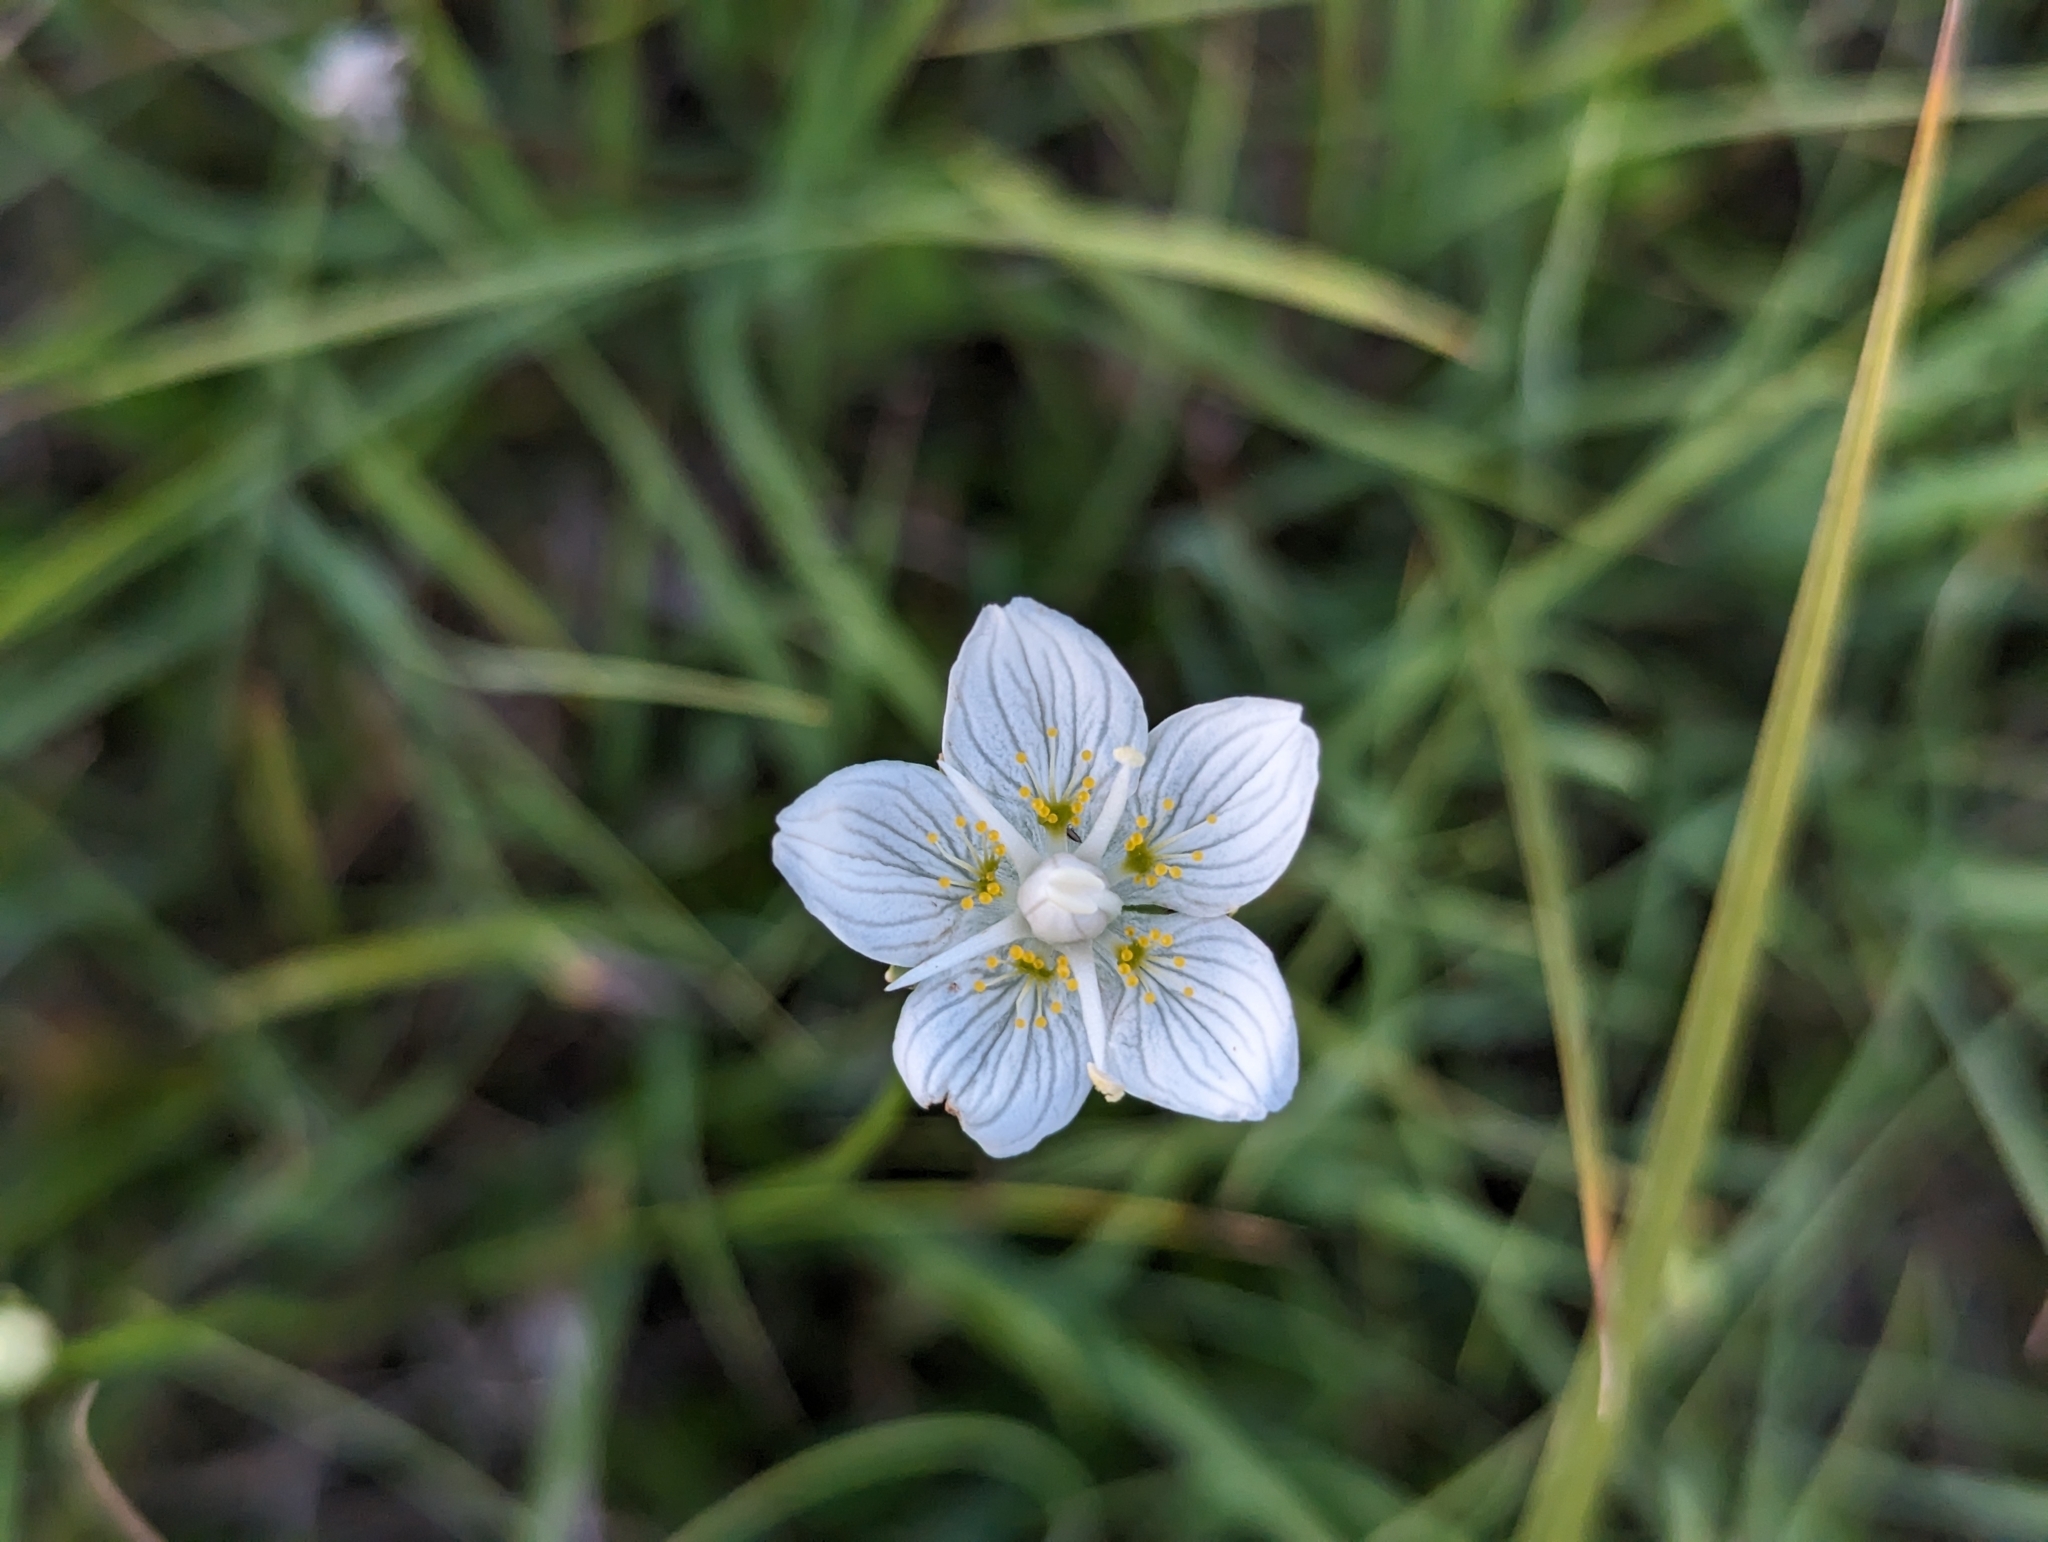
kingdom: Plantae
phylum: Tracheophyta
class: Magnoliopsida
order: Celastrales
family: Parnassiaceae
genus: Parnassia
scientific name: Parnassia palustris
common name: Grass-of-parnassus
